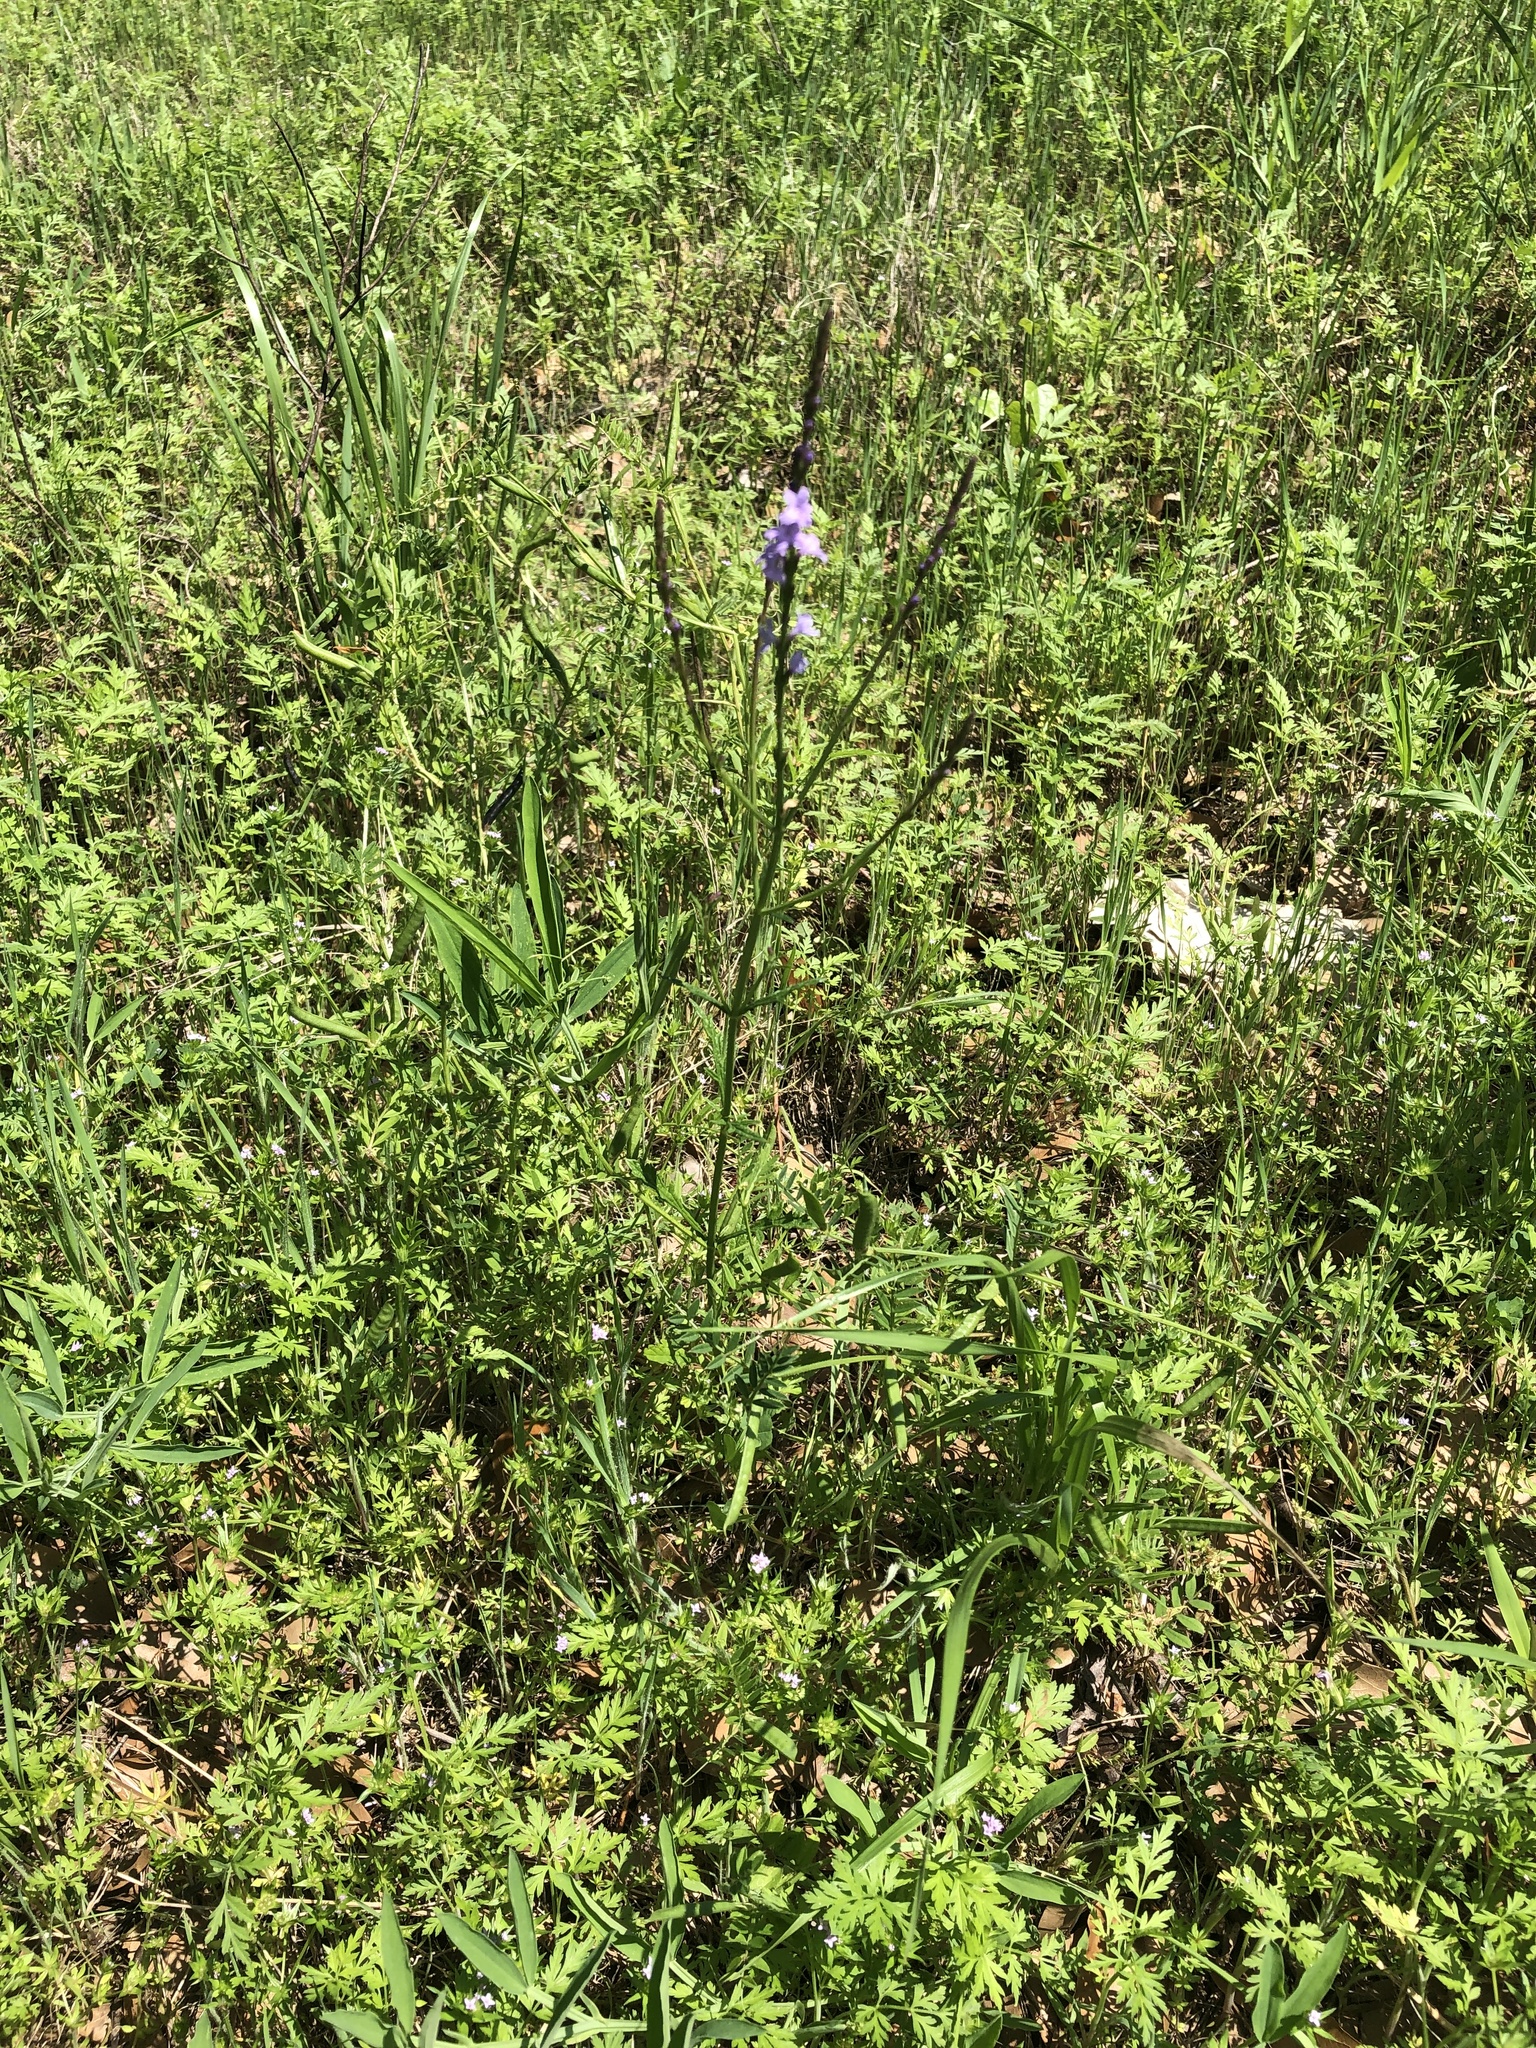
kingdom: Plantae
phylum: Tracheophyta
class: Magnoliopsida
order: Lamiales
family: Verbenaceae
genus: Verbena
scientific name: Verbena halei
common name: Texas vervain
